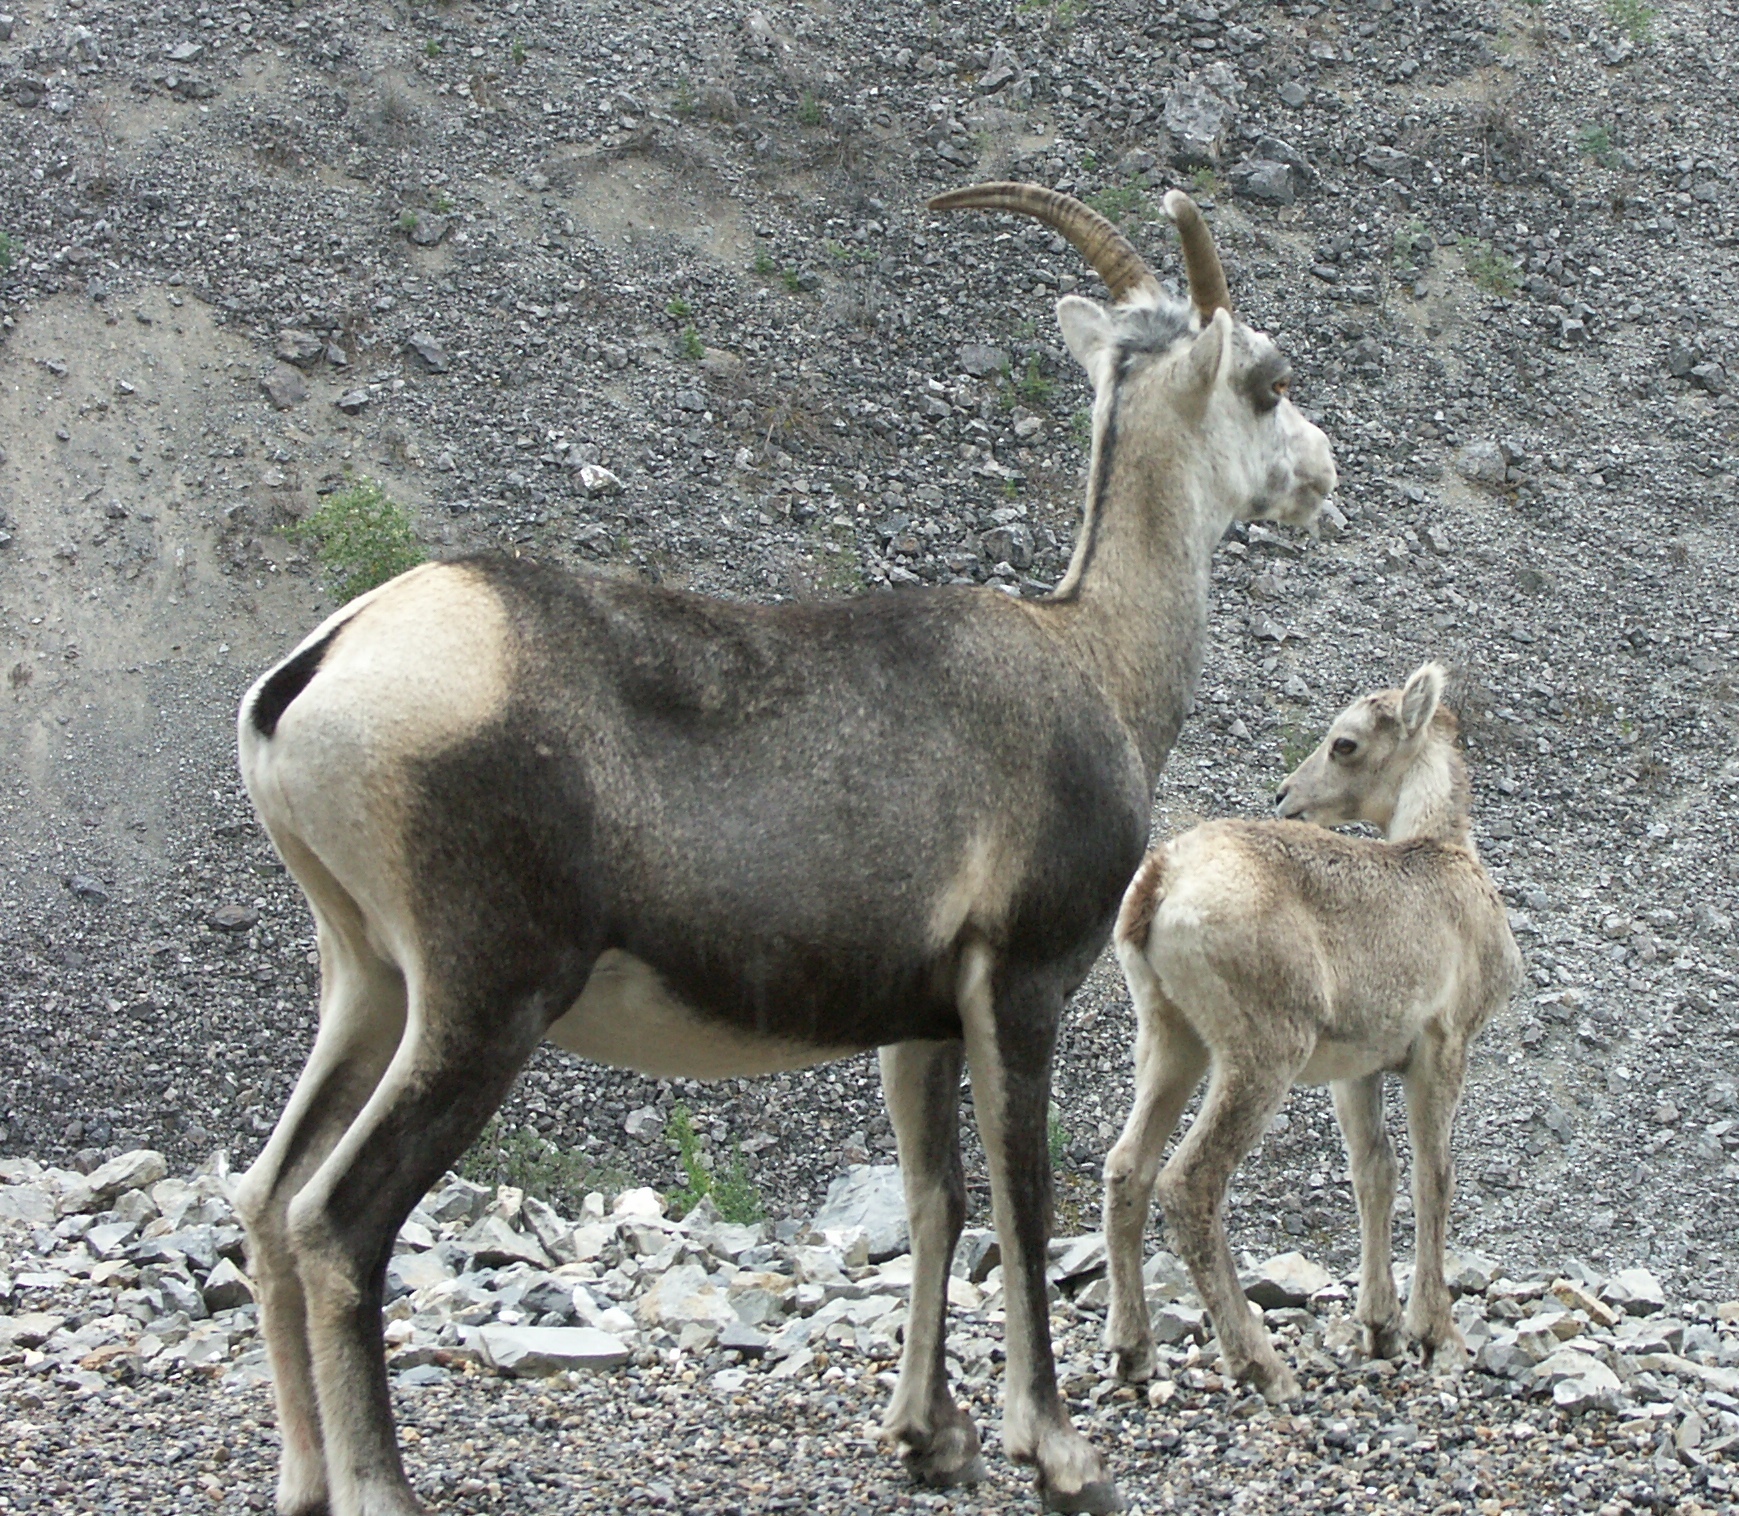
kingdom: Animalia
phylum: Chordata
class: Mammalia
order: Artiodactyla
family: Bovidae
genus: Ovis
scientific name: Ovis dalli
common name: Dall's sheep
